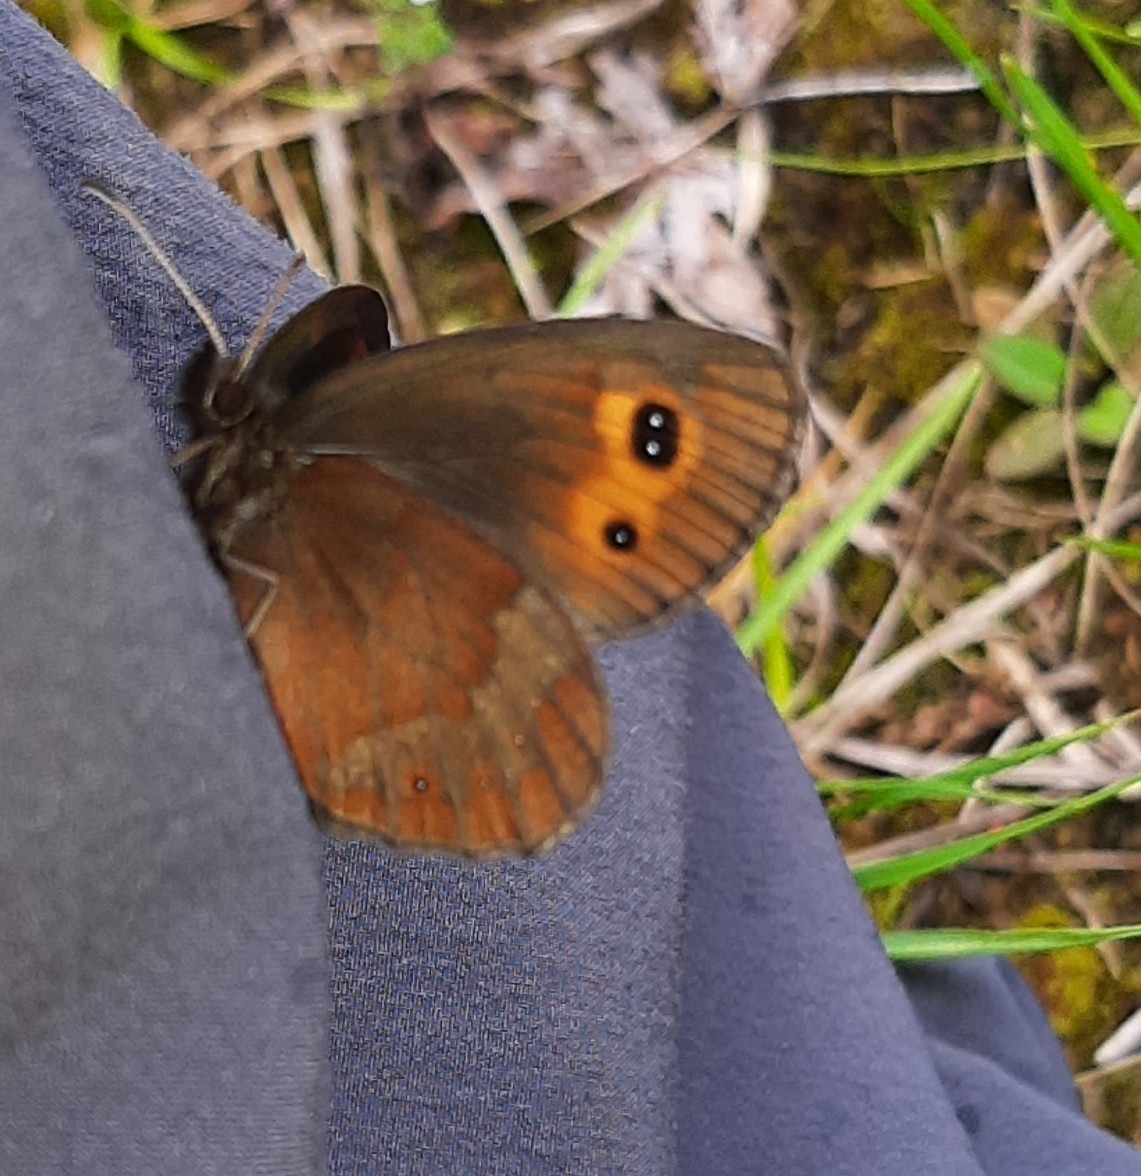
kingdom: Animalia
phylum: Arthropoda
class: Insecta
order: Lepidoptera
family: Nymphalidae
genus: Erebia
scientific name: Erebia aethiops
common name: Scotch argus
